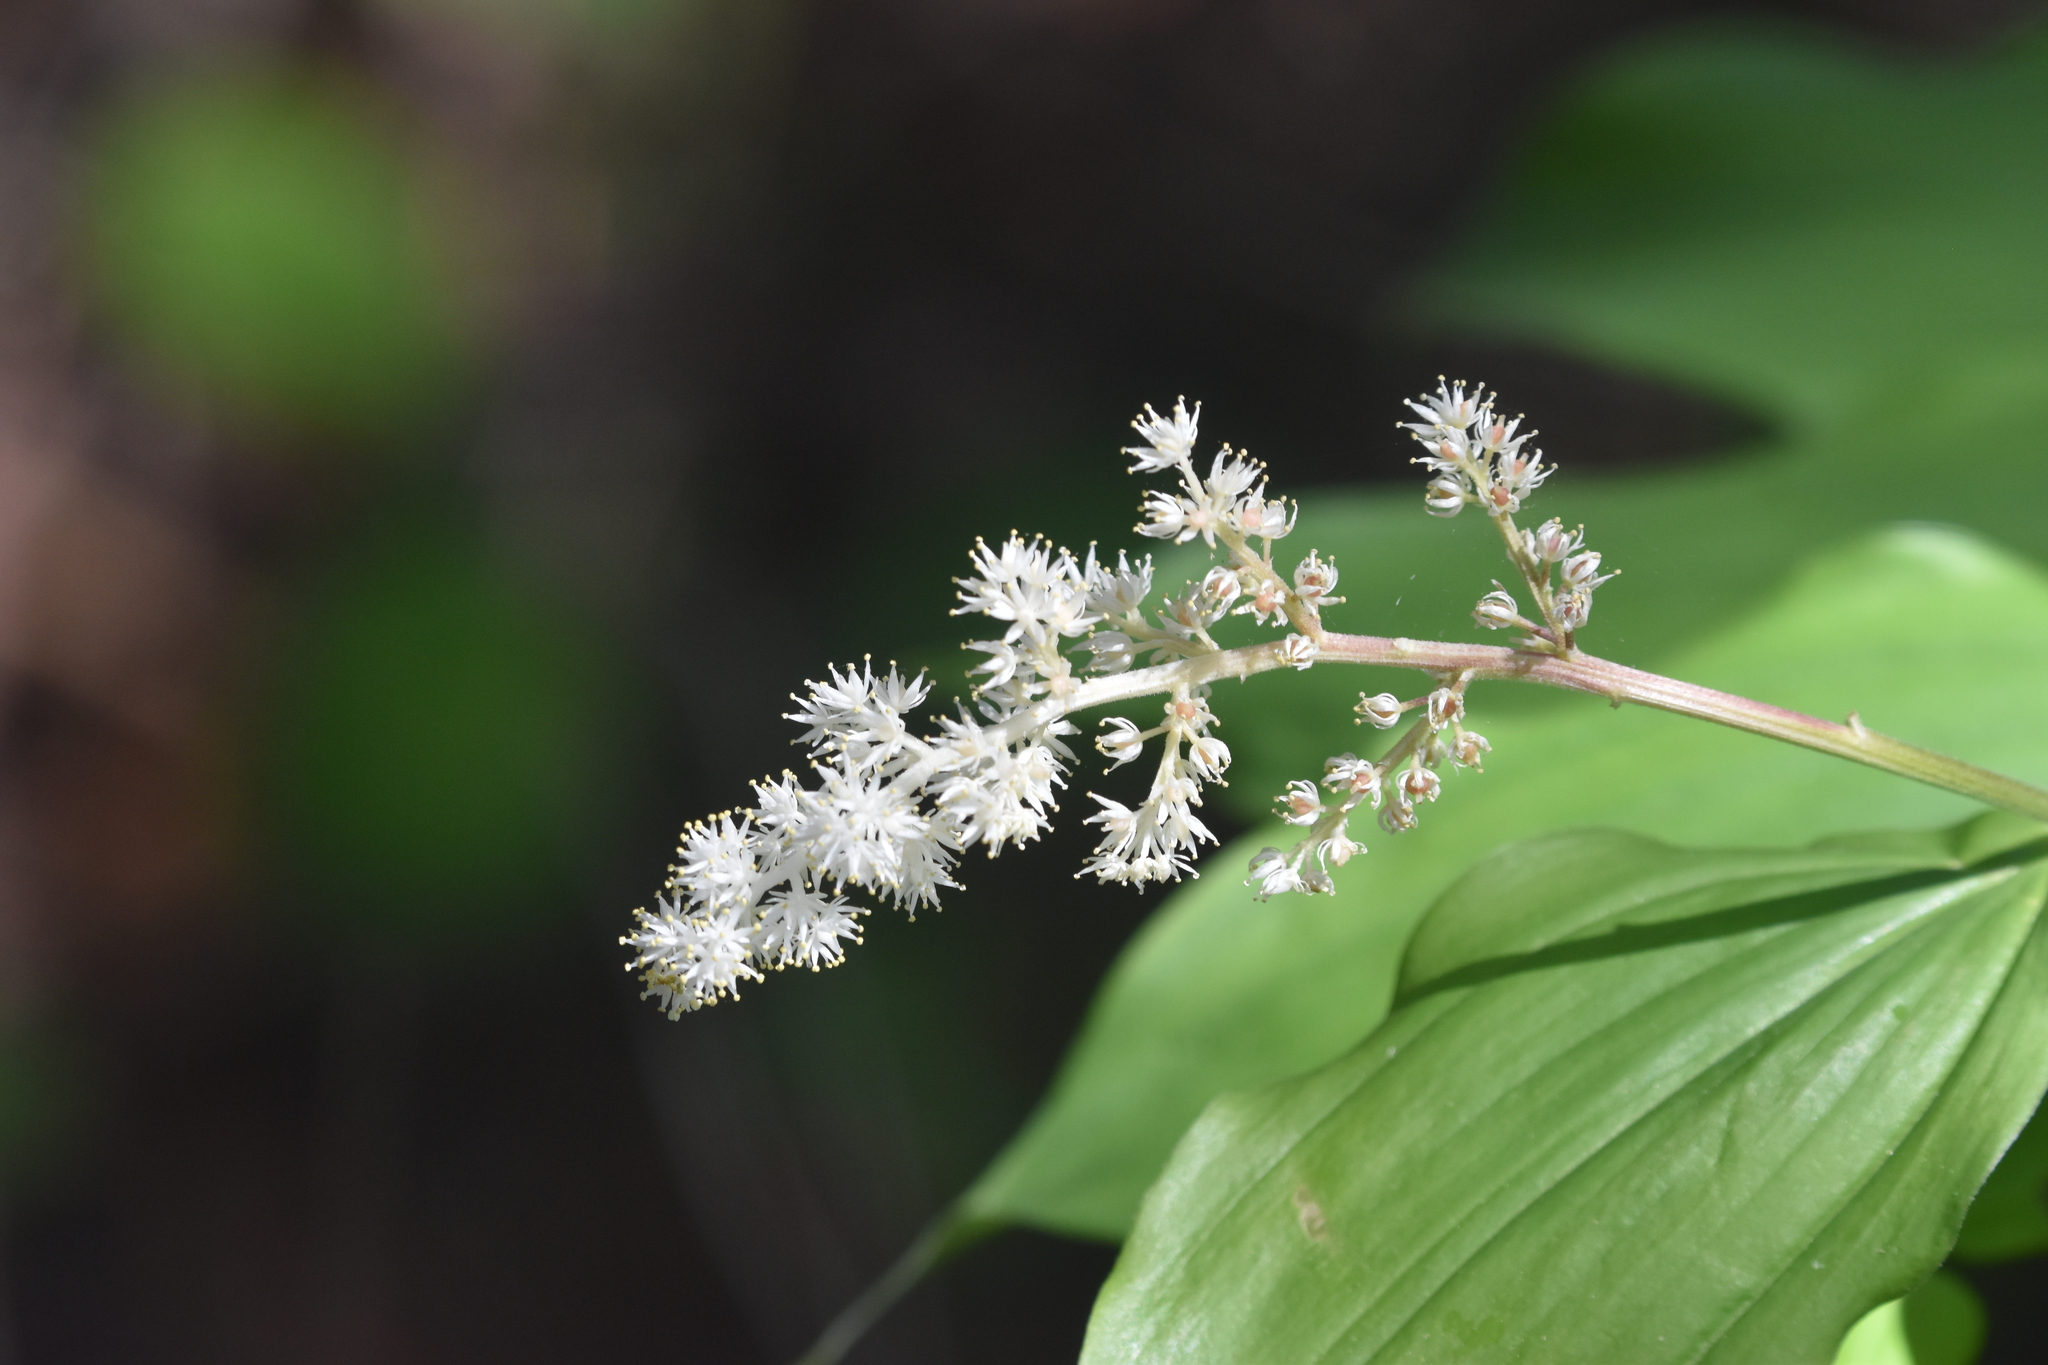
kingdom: Plantae
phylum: Tracheophyta
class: Liliopsida
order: Asparagales
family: Asparagaceae
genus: Maianthemum
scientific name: Maianthemum racemosum
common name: False spikenard
